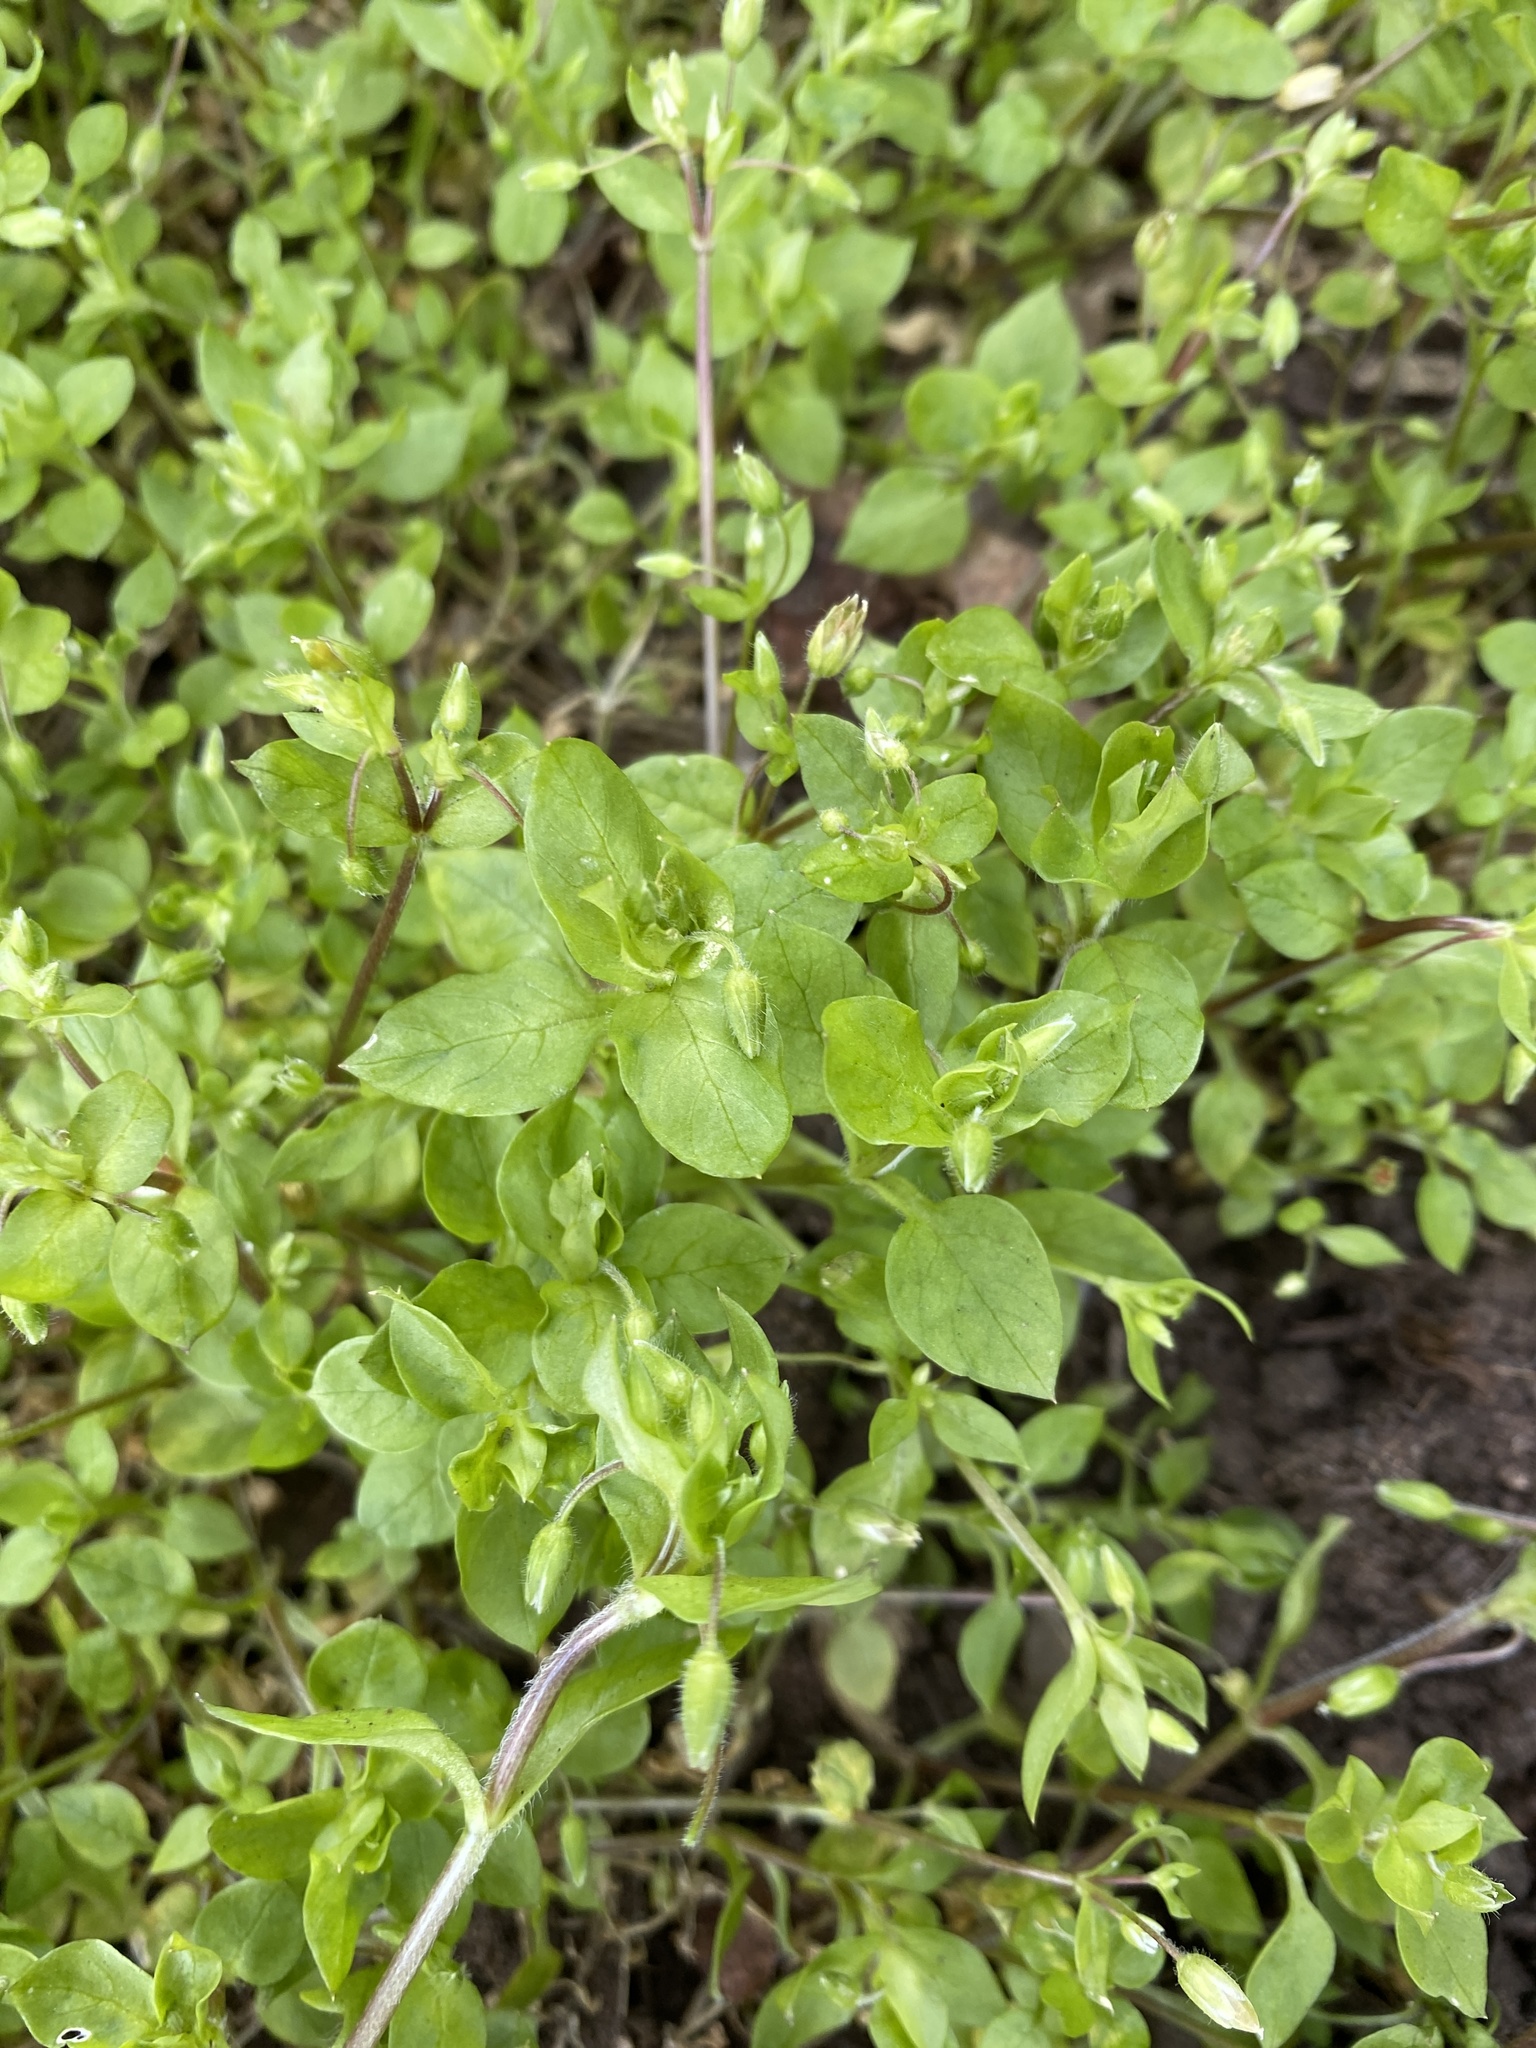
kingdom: Plantae
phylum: Tracheophyta
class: Magnoliopsida
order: Caryophyllales
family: Caryophyllaceae
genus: Stellaria
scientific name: Stellaria media
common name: Common chickweed
